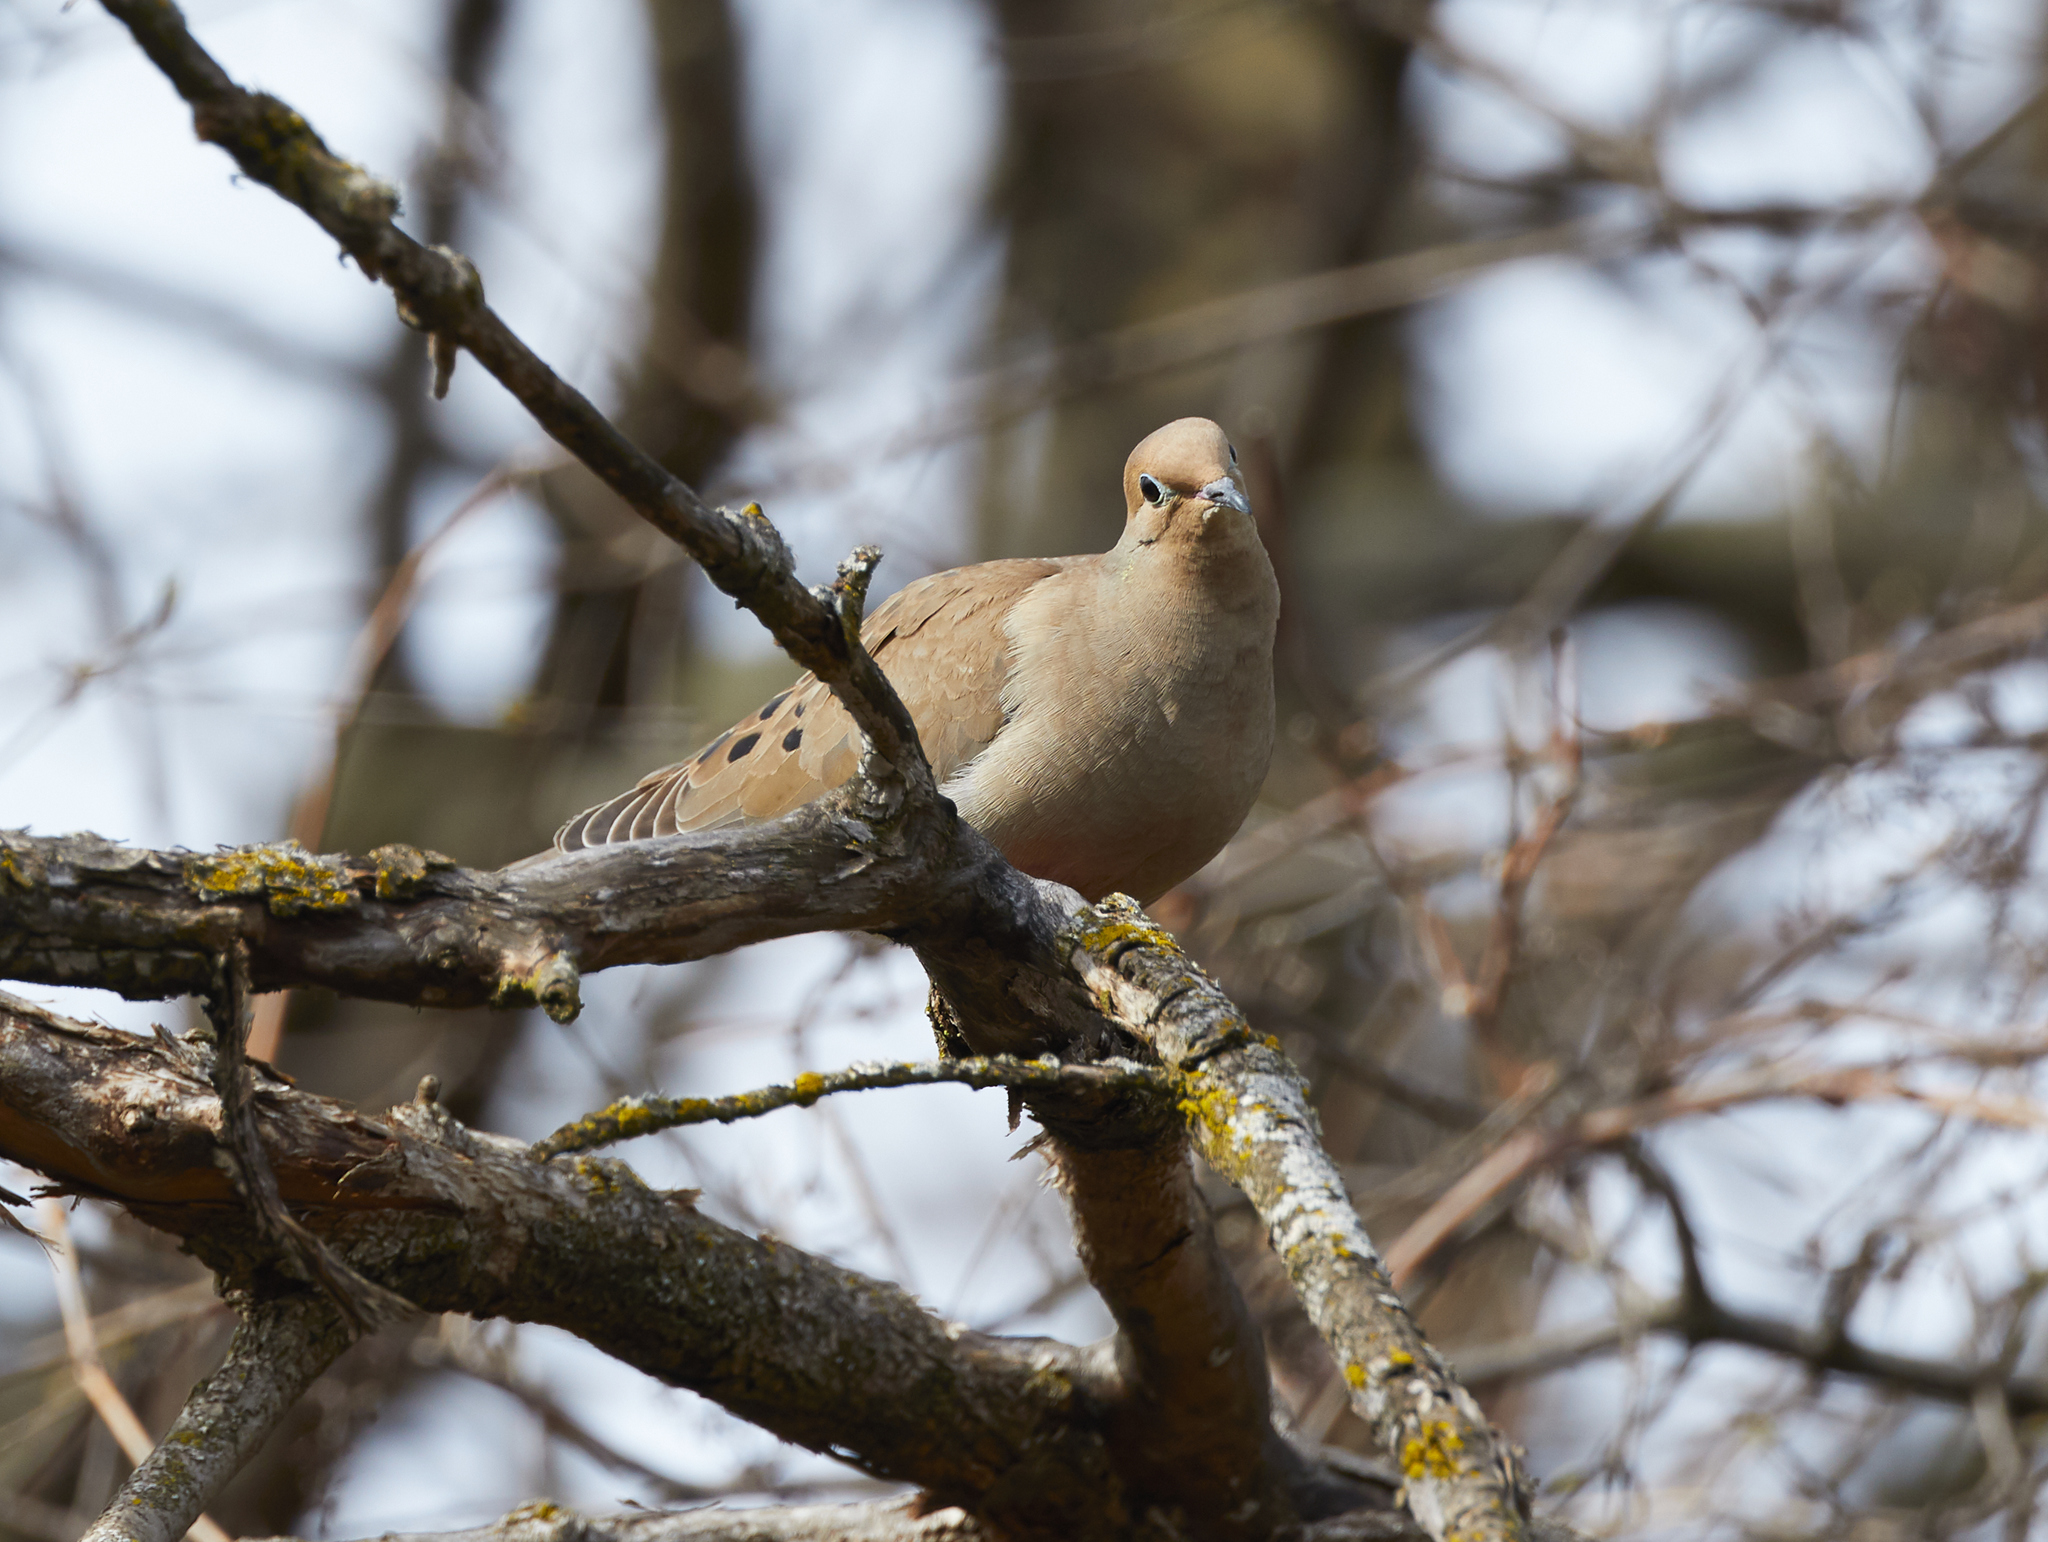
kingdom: Animalia
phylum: Chordata
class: Aves
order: Columbiformes
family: Columbidae
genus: Zenaida
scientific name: Zenaida macroura
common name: Mourning dove
